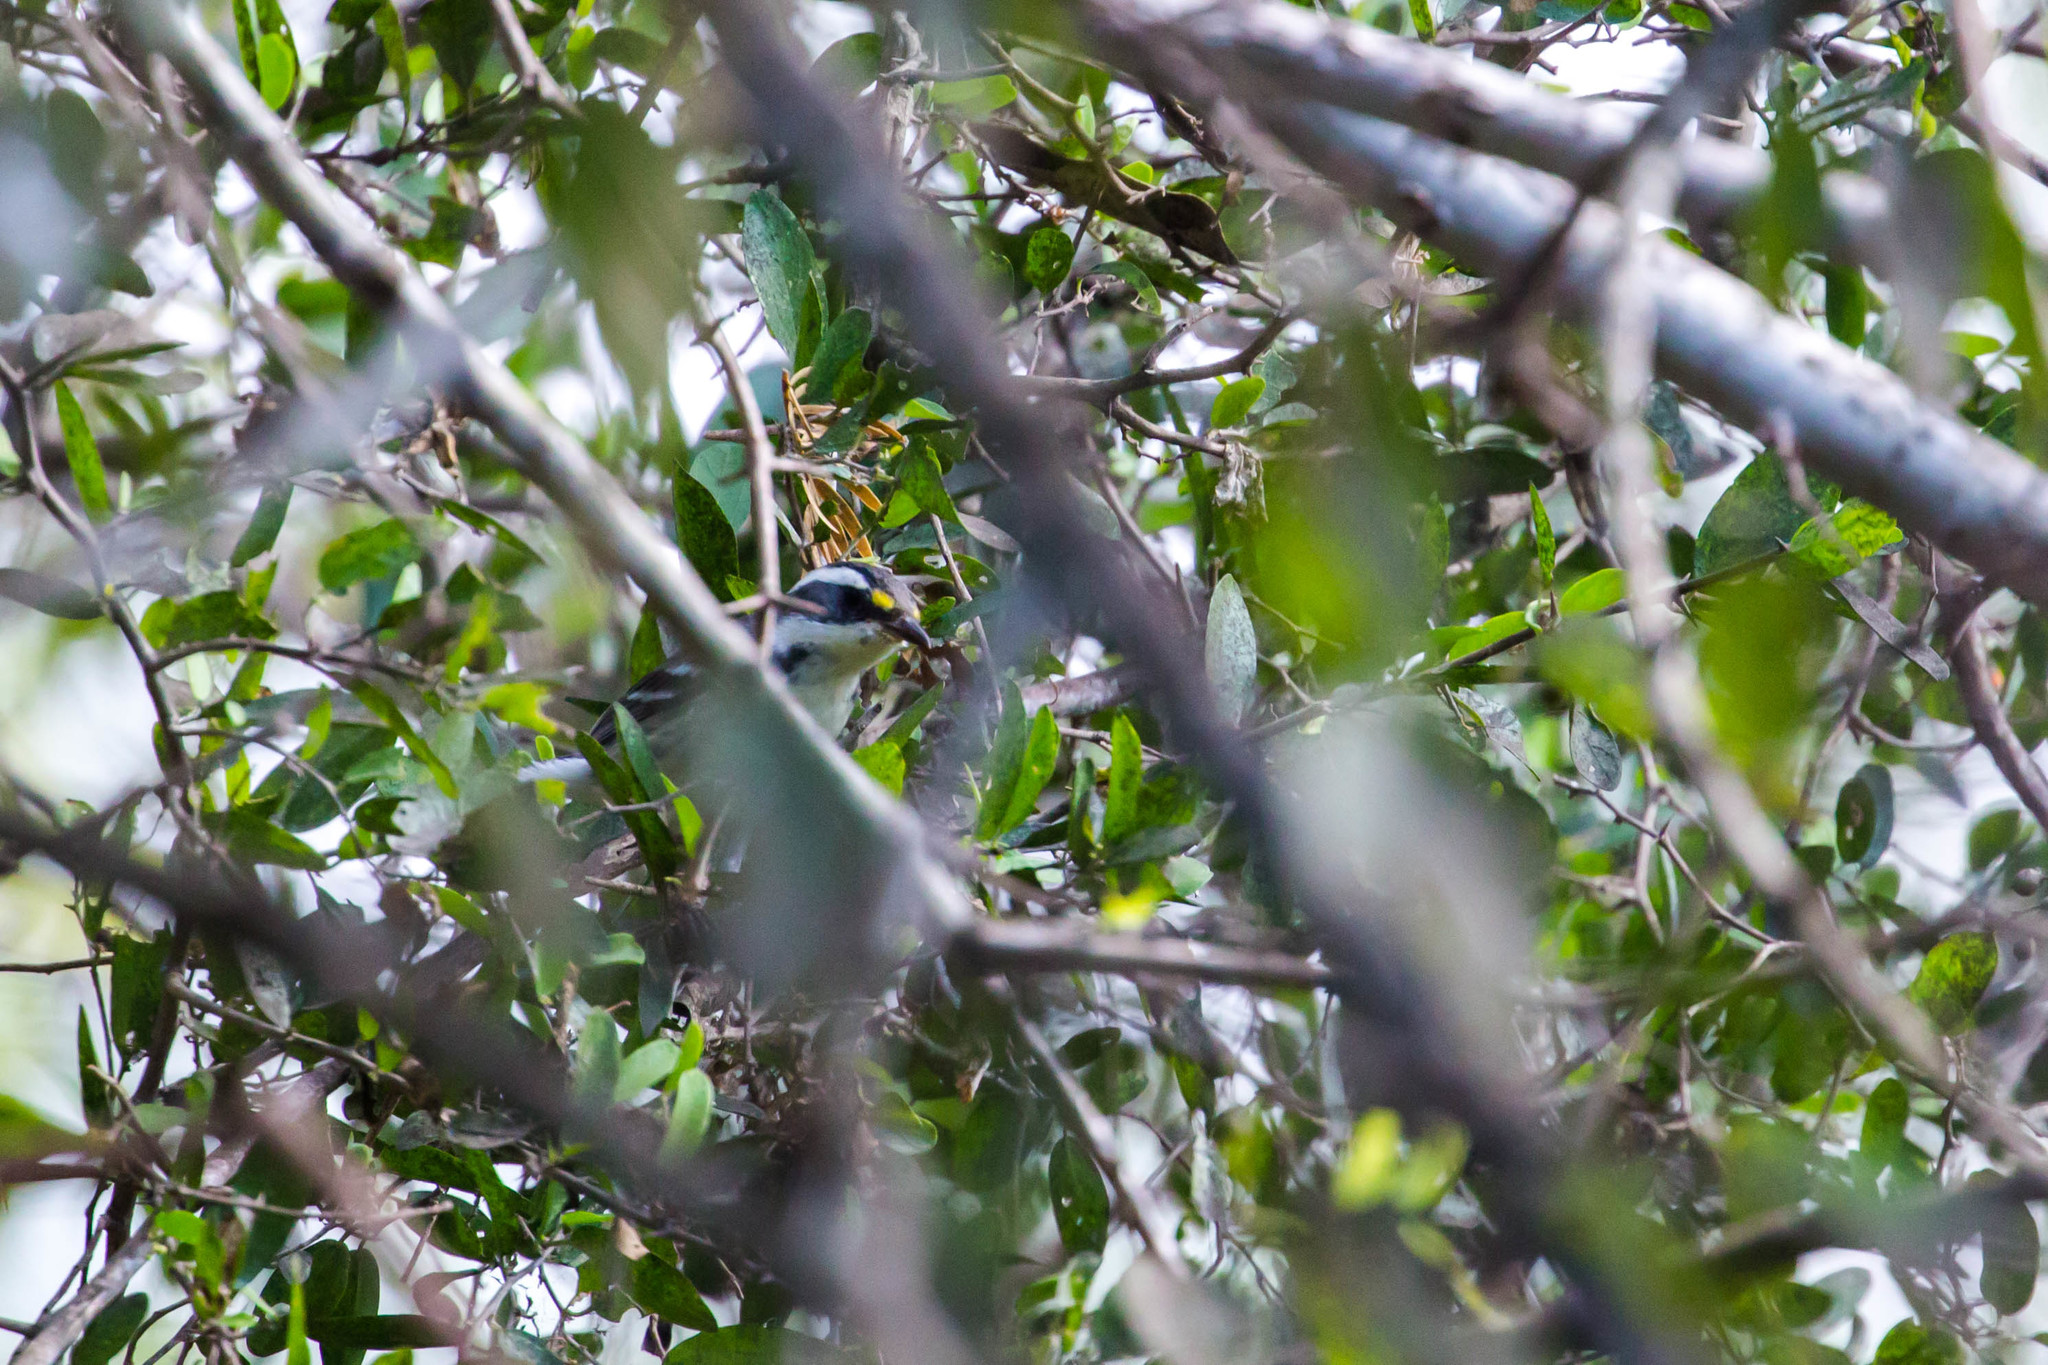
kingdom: Animalia
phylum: Chordata
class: Aves
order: Passeriformes
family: Parulidae
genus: Setophaga
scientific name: Setophaga nigrescens
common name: Black-throated gray warbler
